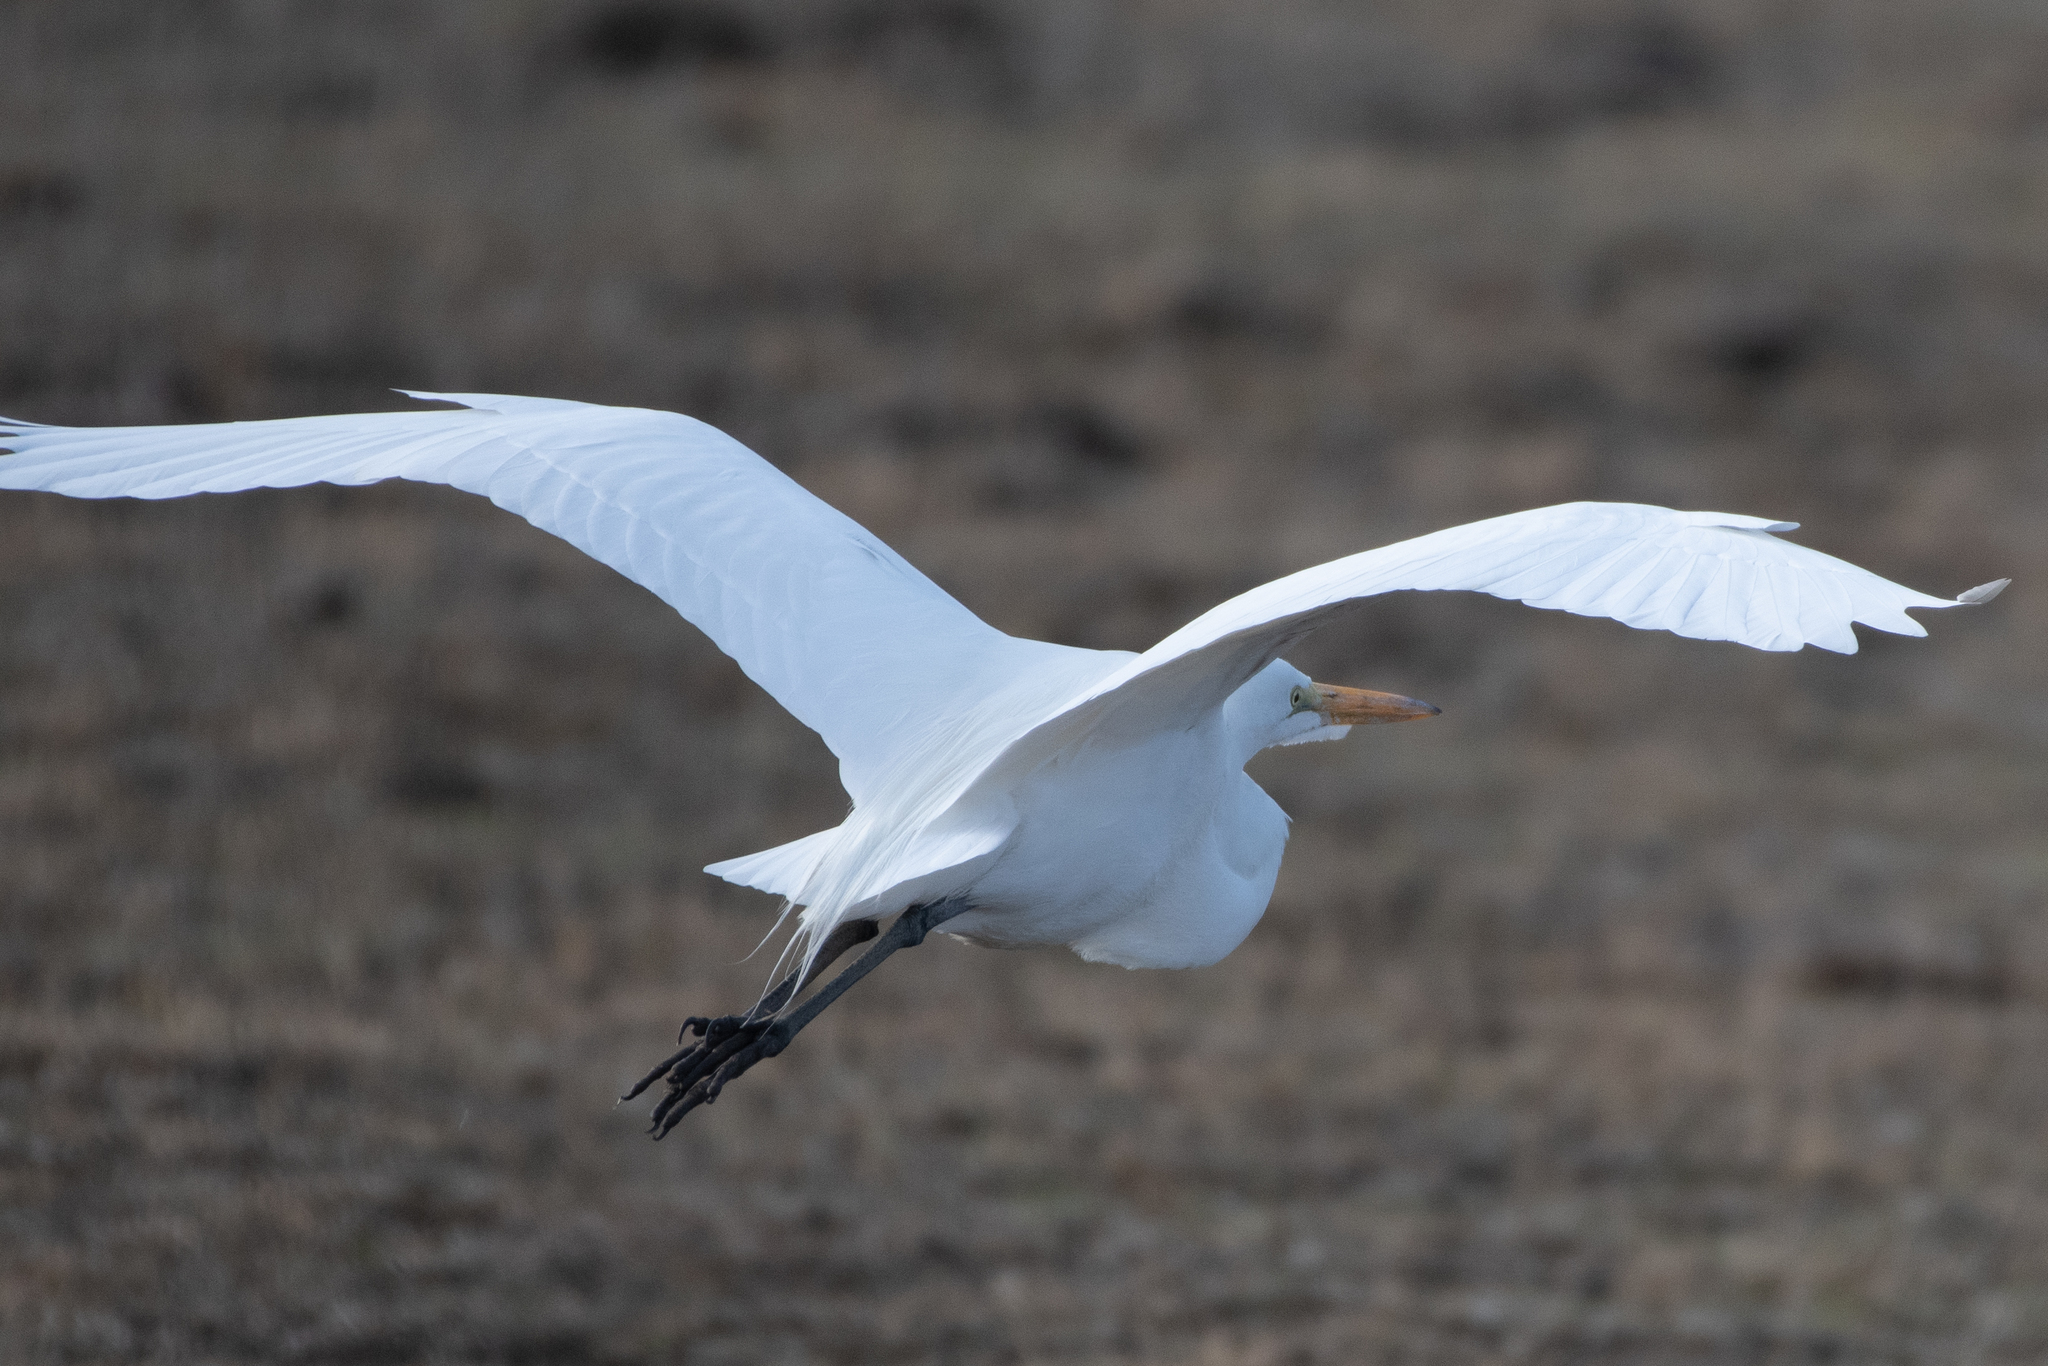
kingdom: Animalia
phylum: Chordata
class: Aves
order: Pelecaniformes
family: Ardeidae
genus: Ardea
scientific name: Ardea alba
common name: Great egret
